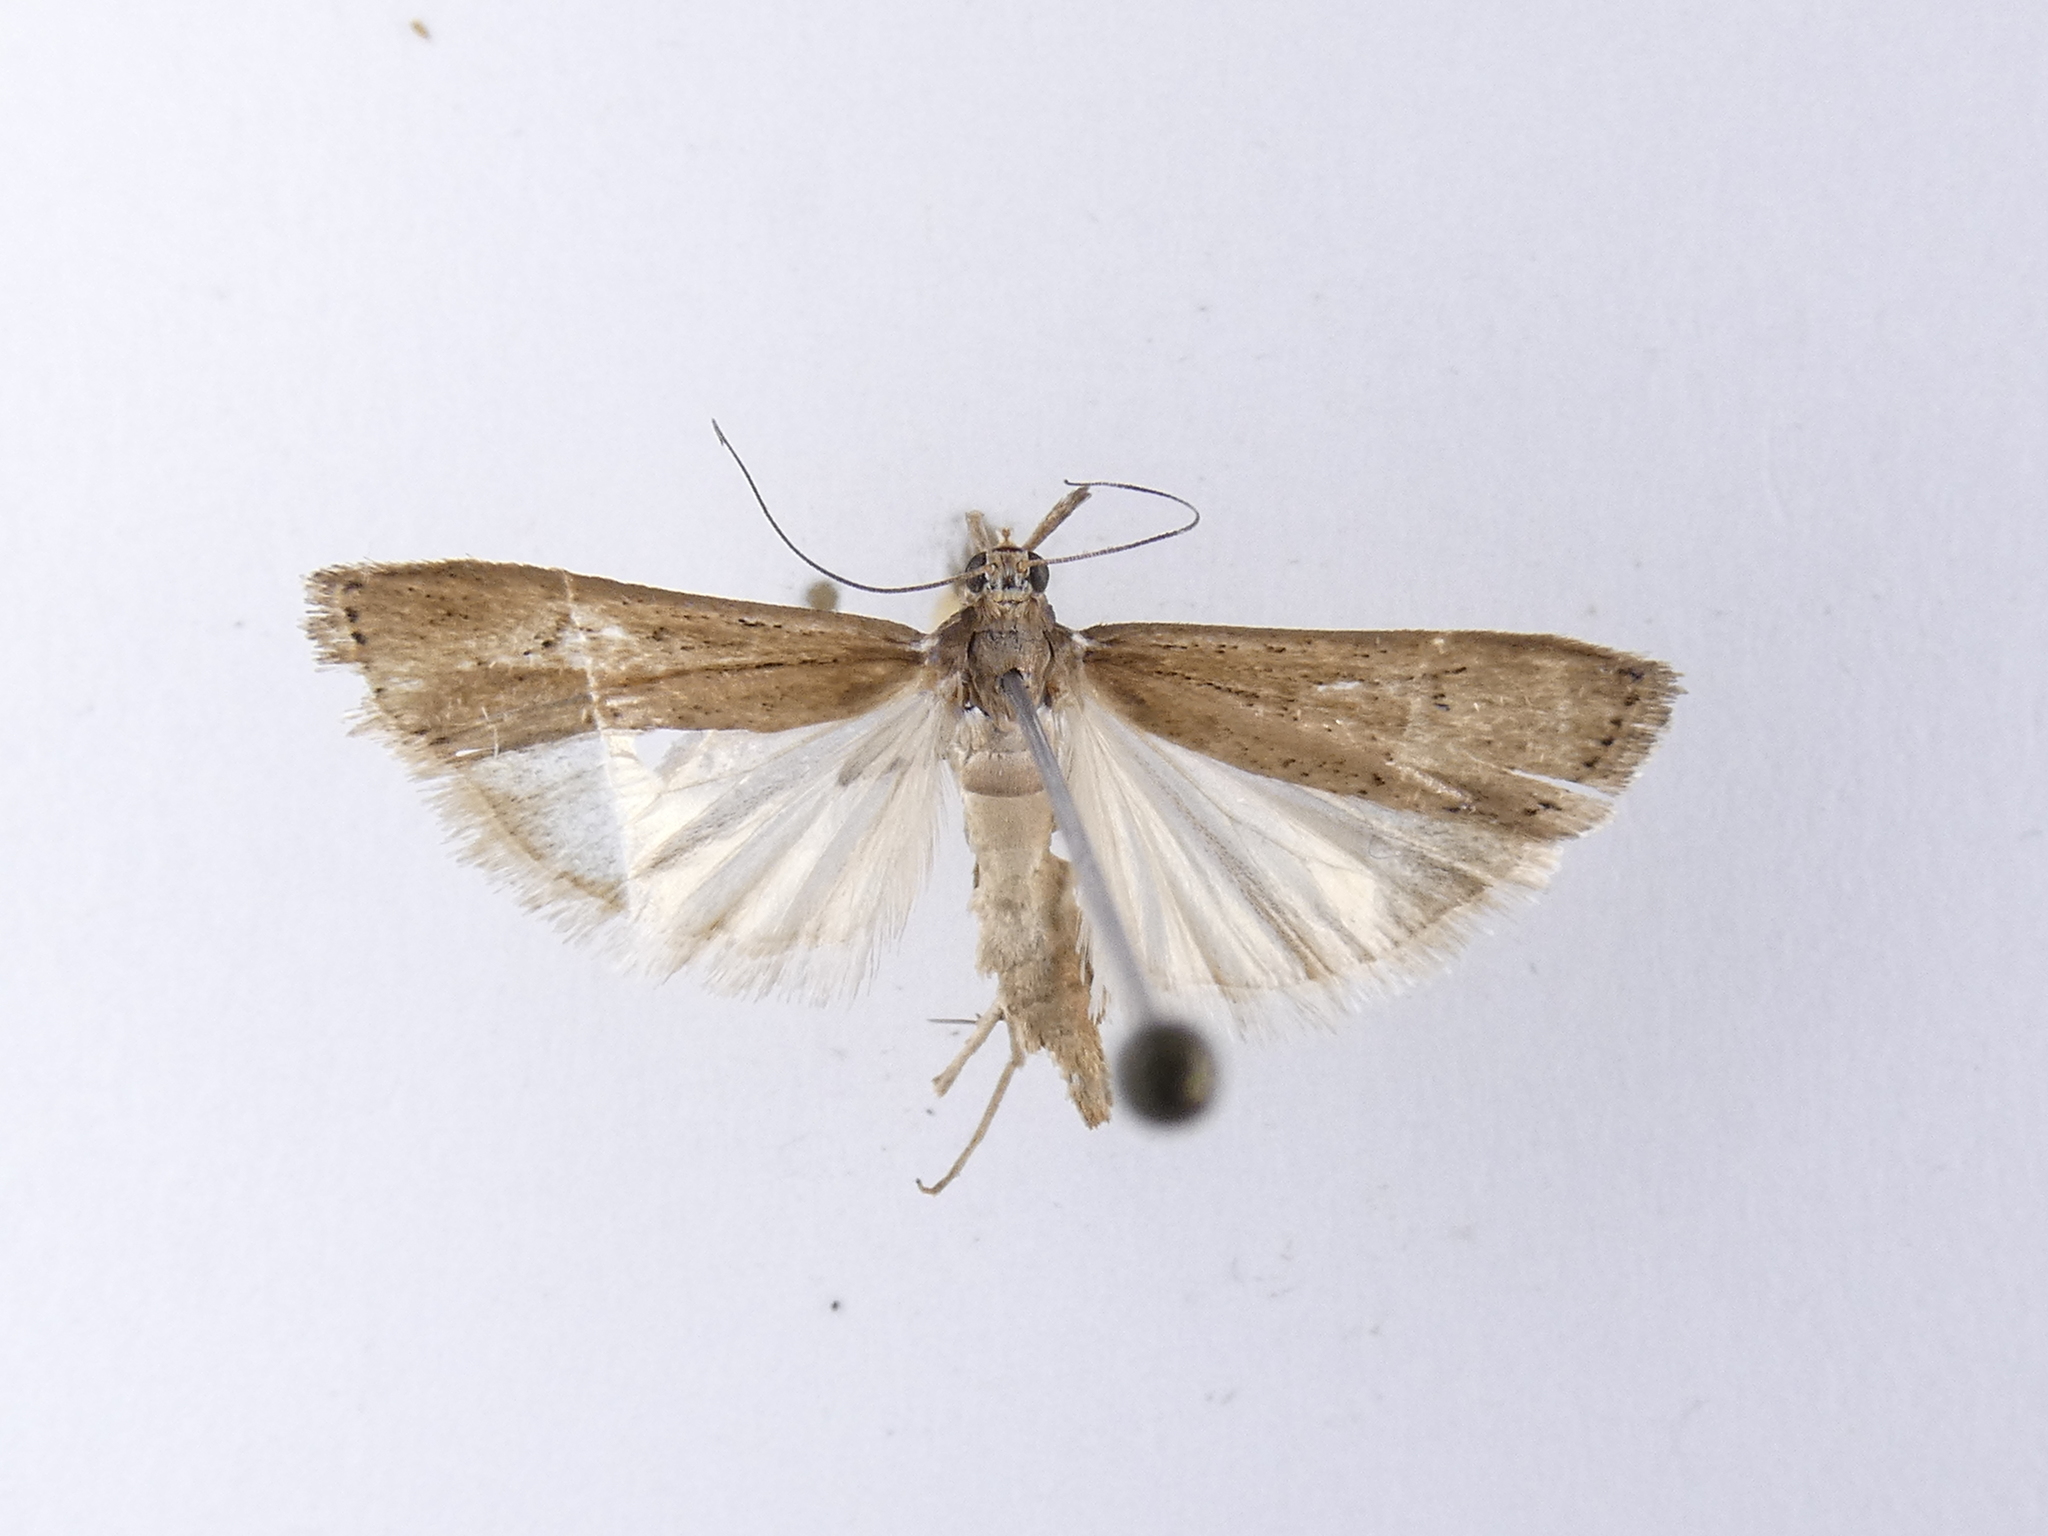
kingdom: Animalia
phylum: Arthropoda
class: Insecta
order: Lepidoptera
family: Crambidae
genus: Eudonia
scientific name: Eudonia sabulosella
